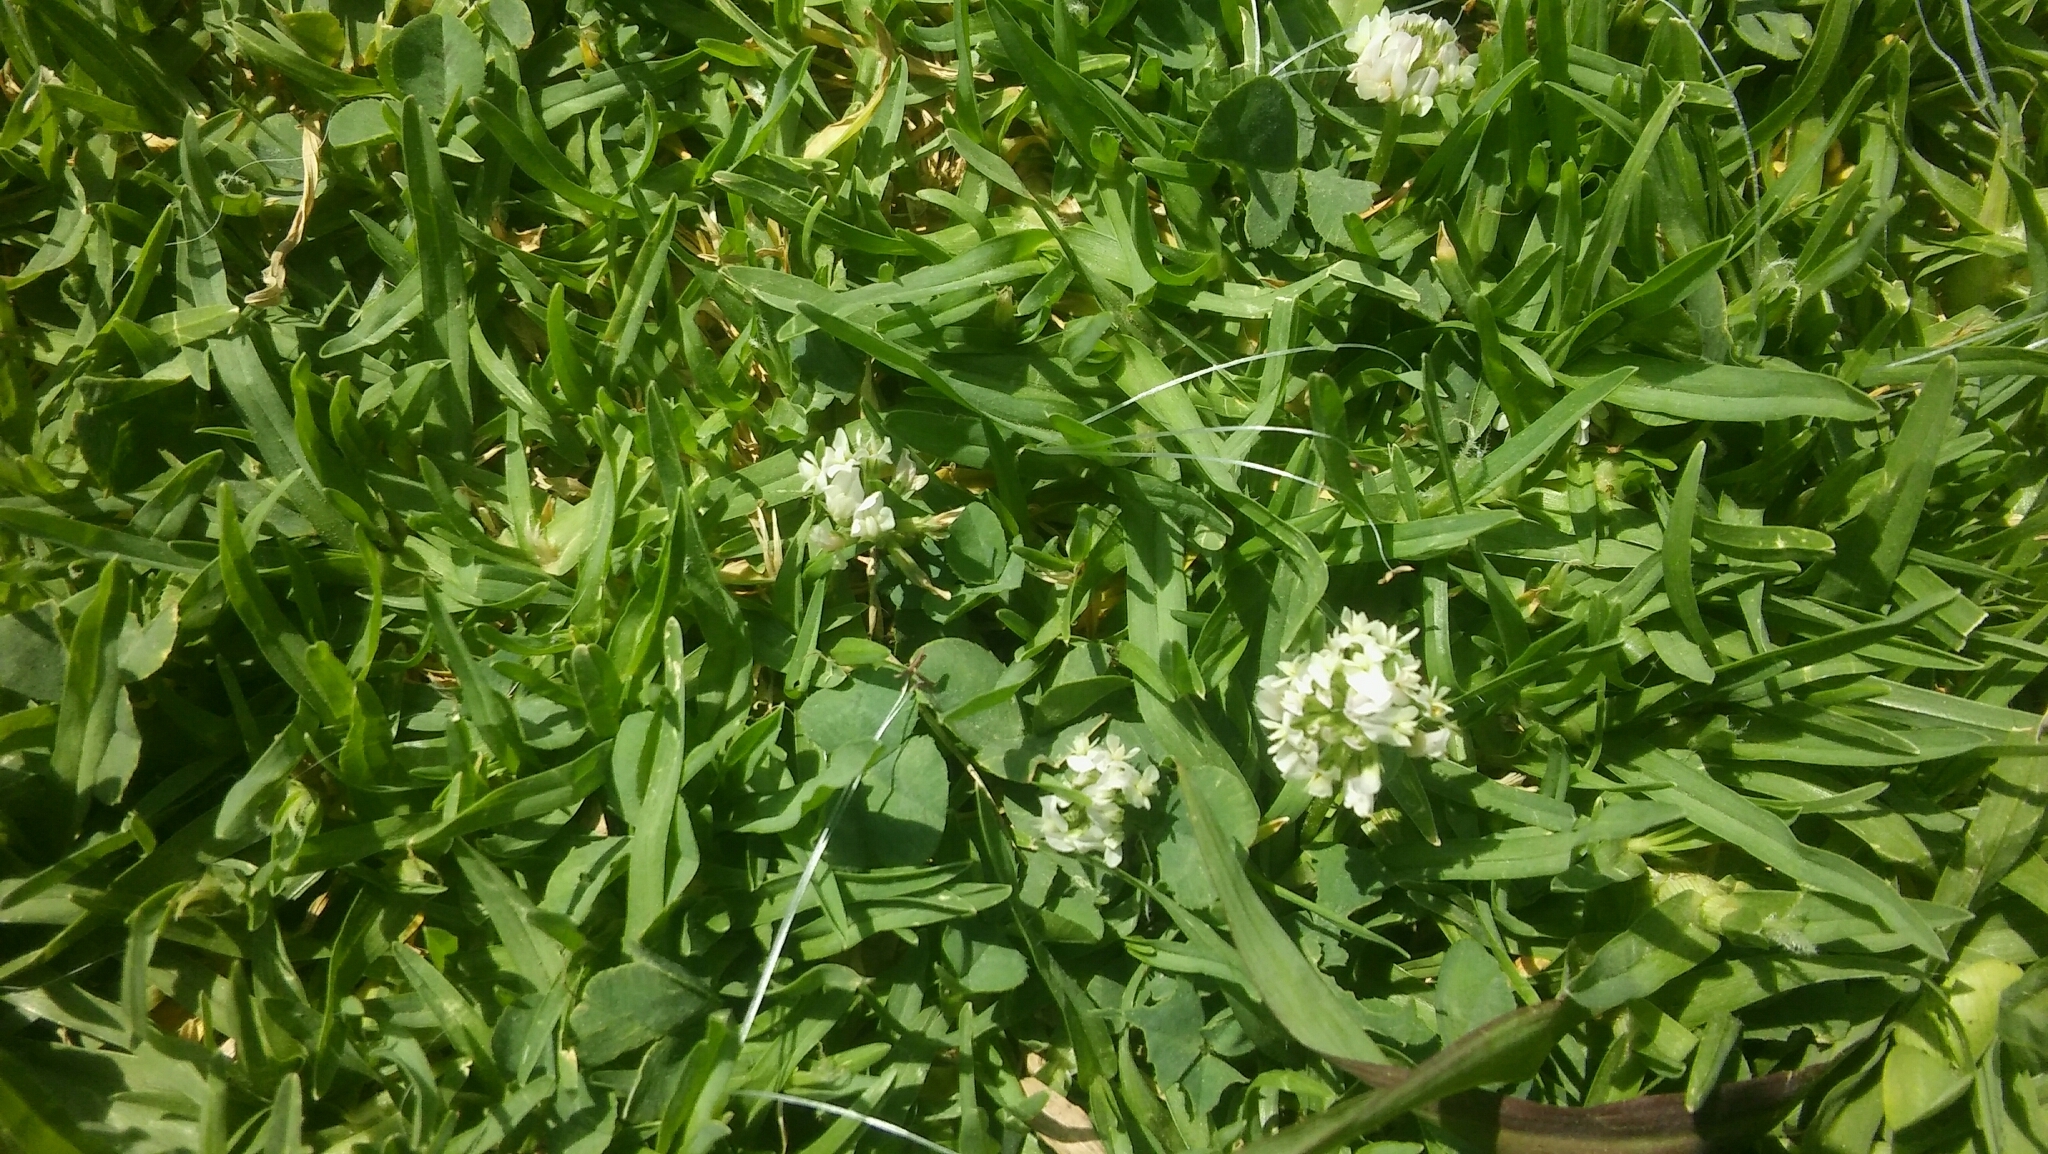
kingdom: Plantae
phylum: Tracheophyta
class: Magnoliopsida
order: Fabales
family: Fabaceae
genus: Trifolium
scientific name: Trifolium repens
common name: White clover
